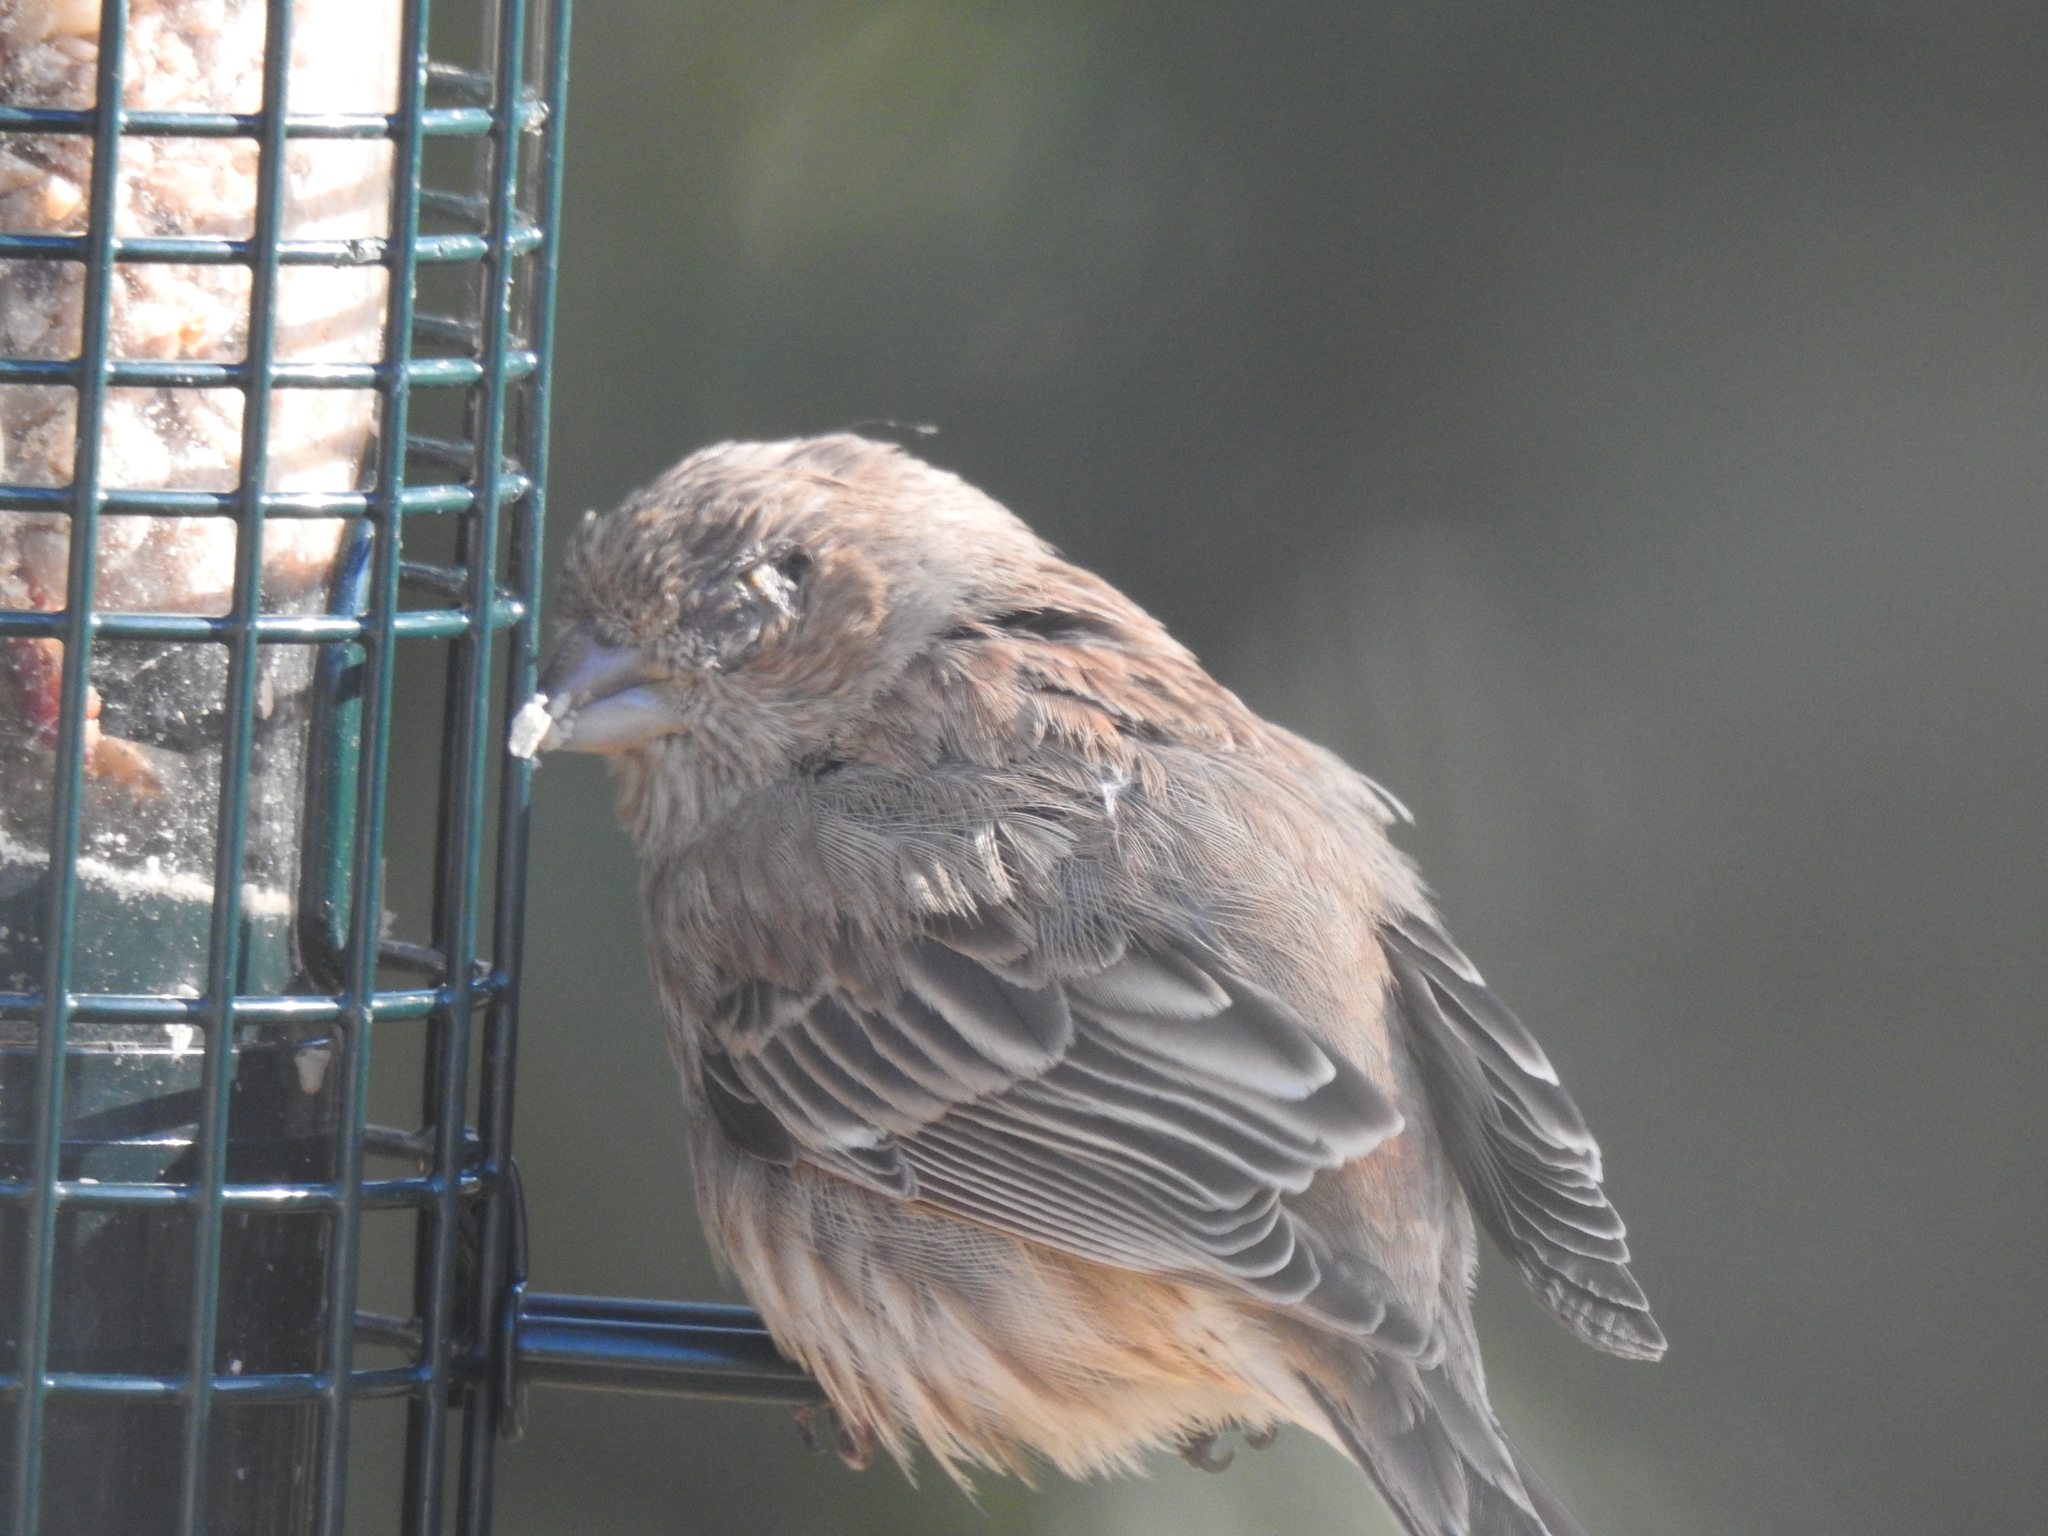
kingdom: Animalia
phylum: Chordata
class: Aves
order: Passeriformes
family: Fringillidae
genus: Haemorhous
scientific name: Haemorhous mexicanus
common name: House finch
